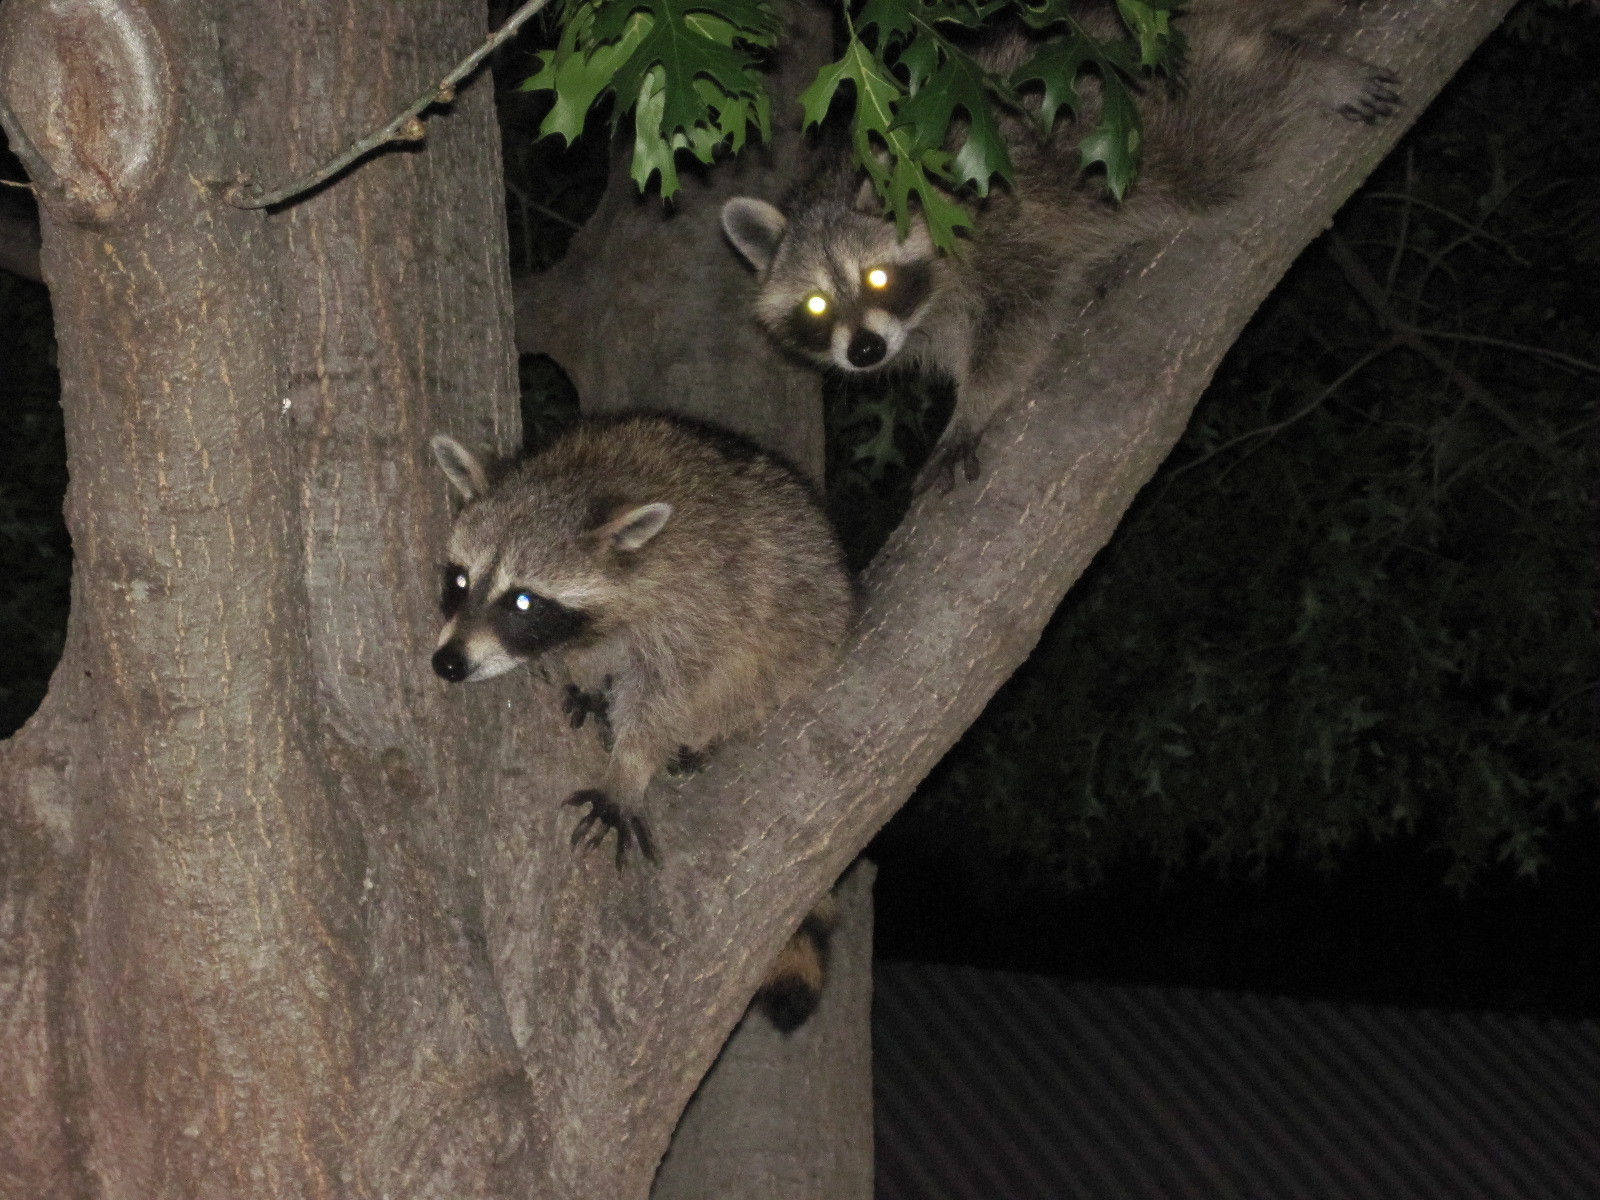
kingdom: Animalia
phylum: Chordata
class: Mammalia
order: Carnivora
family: Procyonidae
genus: Procyon
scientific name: Procyon lotor
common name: Raccoon
